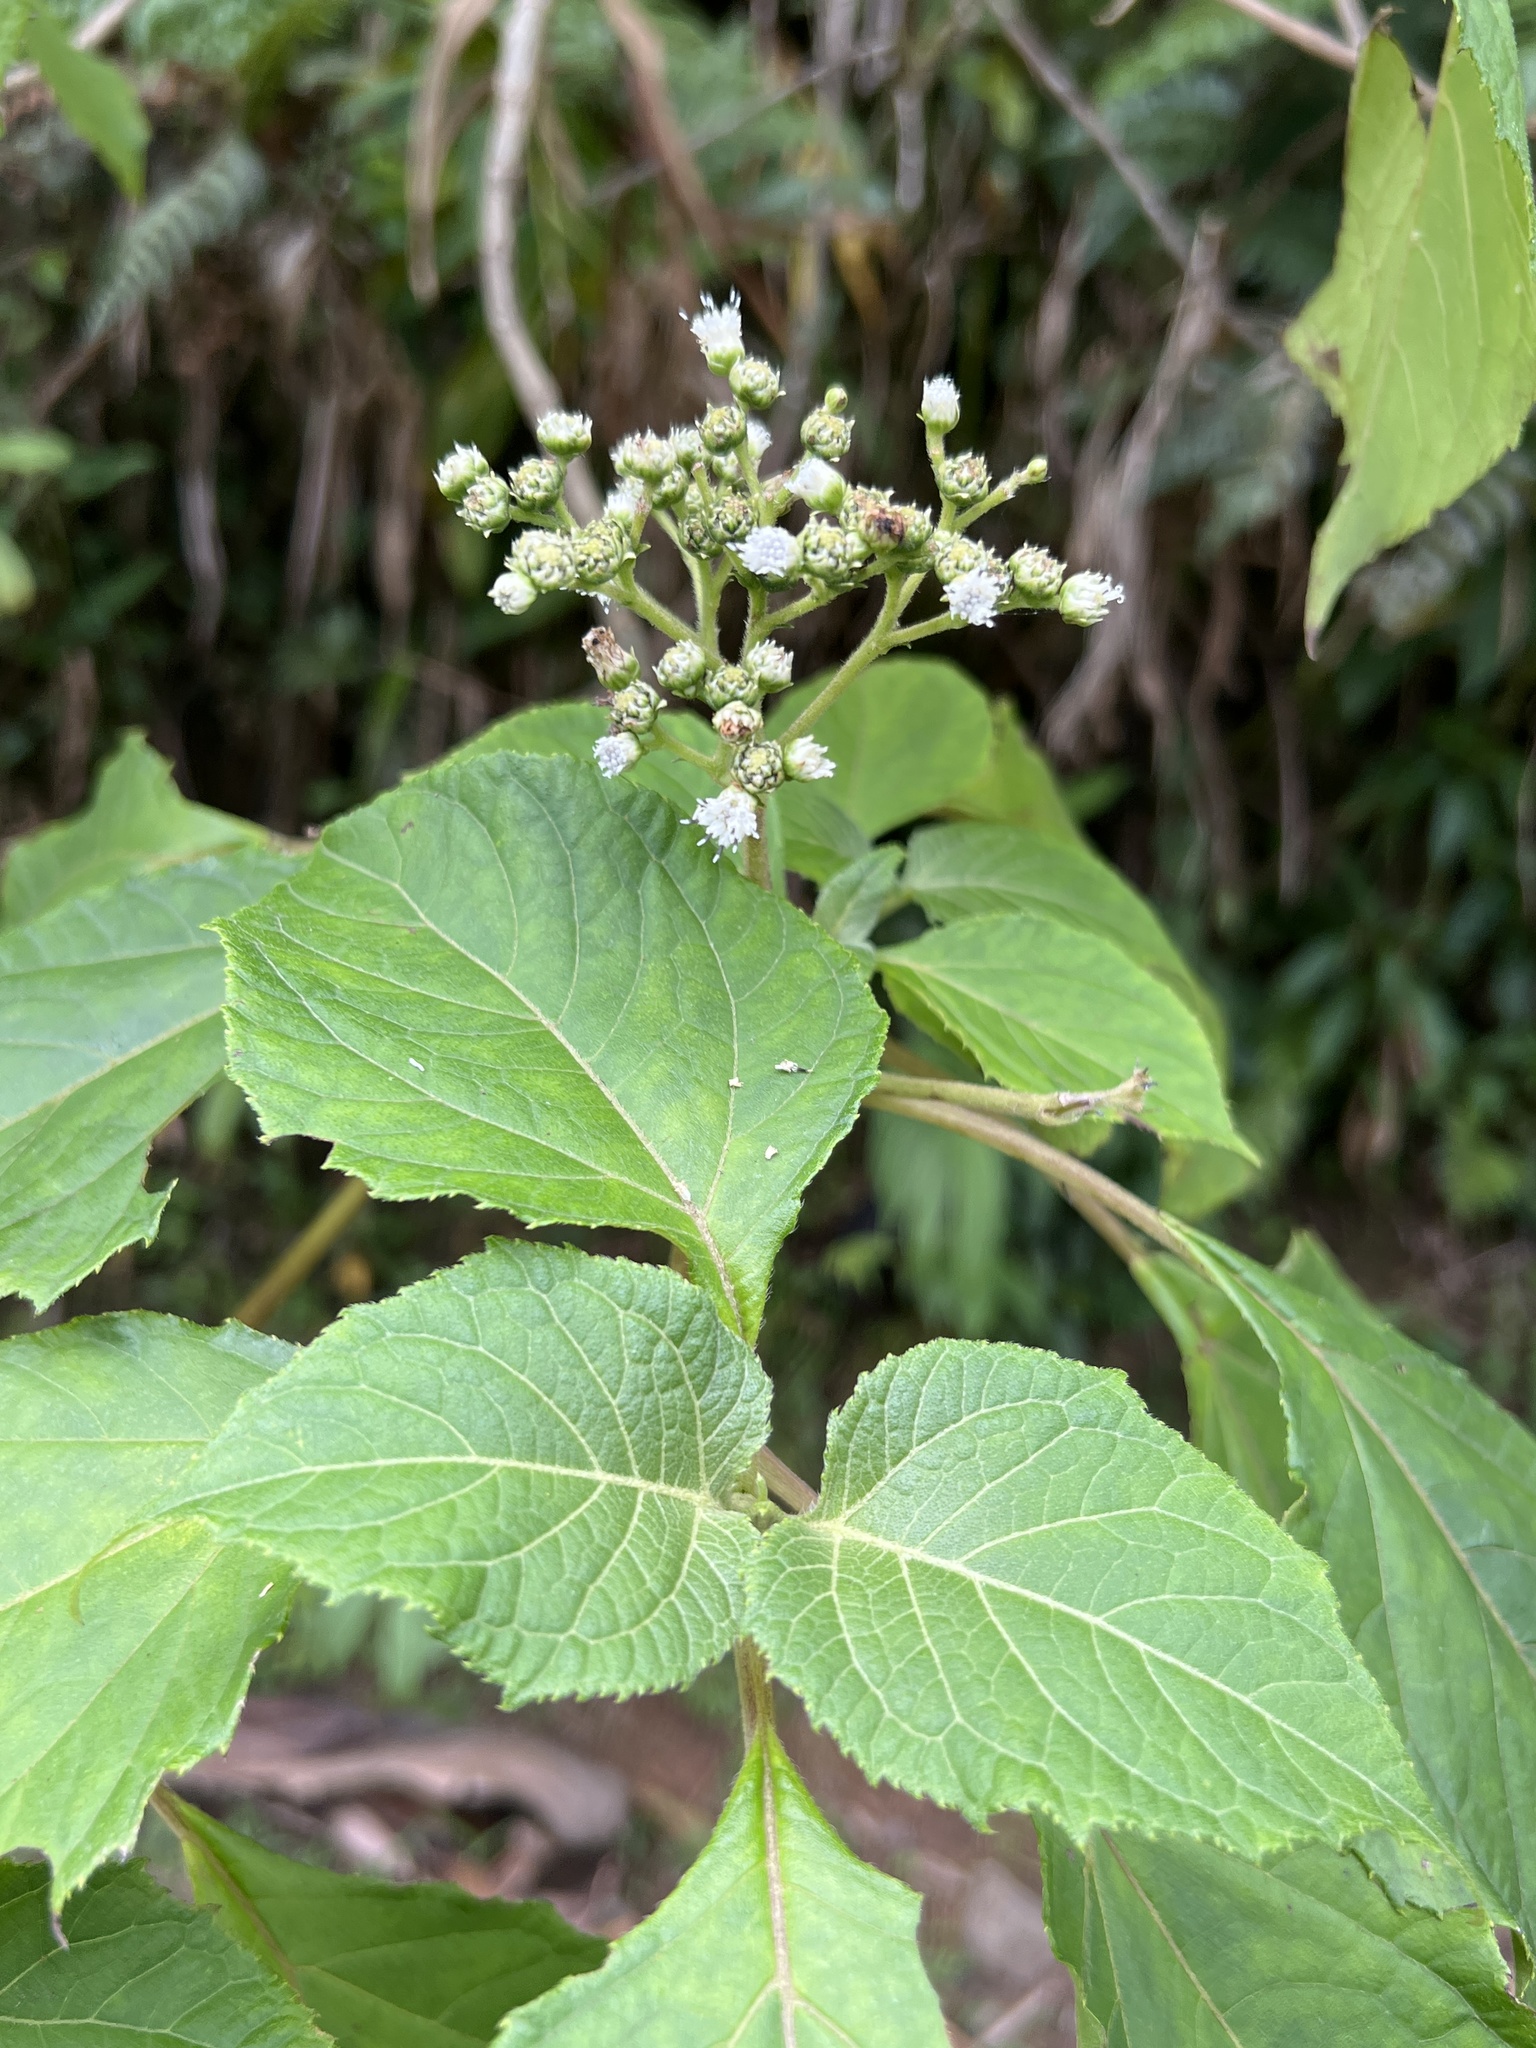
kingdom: Plantae
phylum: Tracheophyta
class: Magnoliopsida
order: Asterales
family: Asteraceae
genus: Clibadium
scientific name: Clibadium erosum
